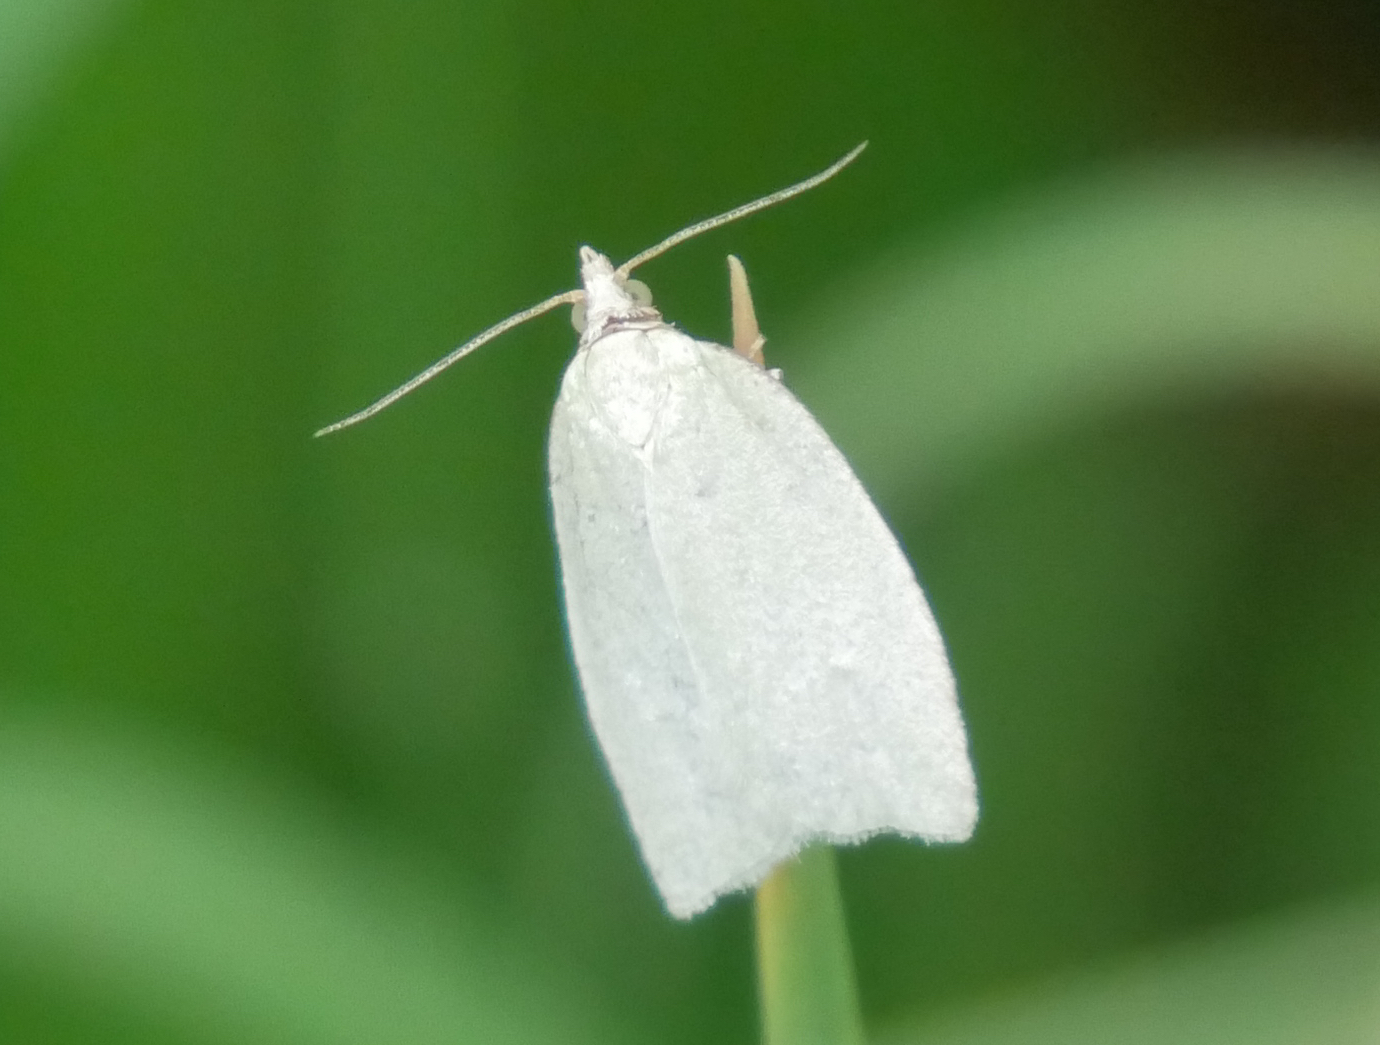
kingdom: Animalia
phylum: Arthropoda
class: Insecta
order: Lepidoptera
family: Tortricidae
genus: Tortrix
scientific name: Tortrix viridana
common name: Green oak tortrix
